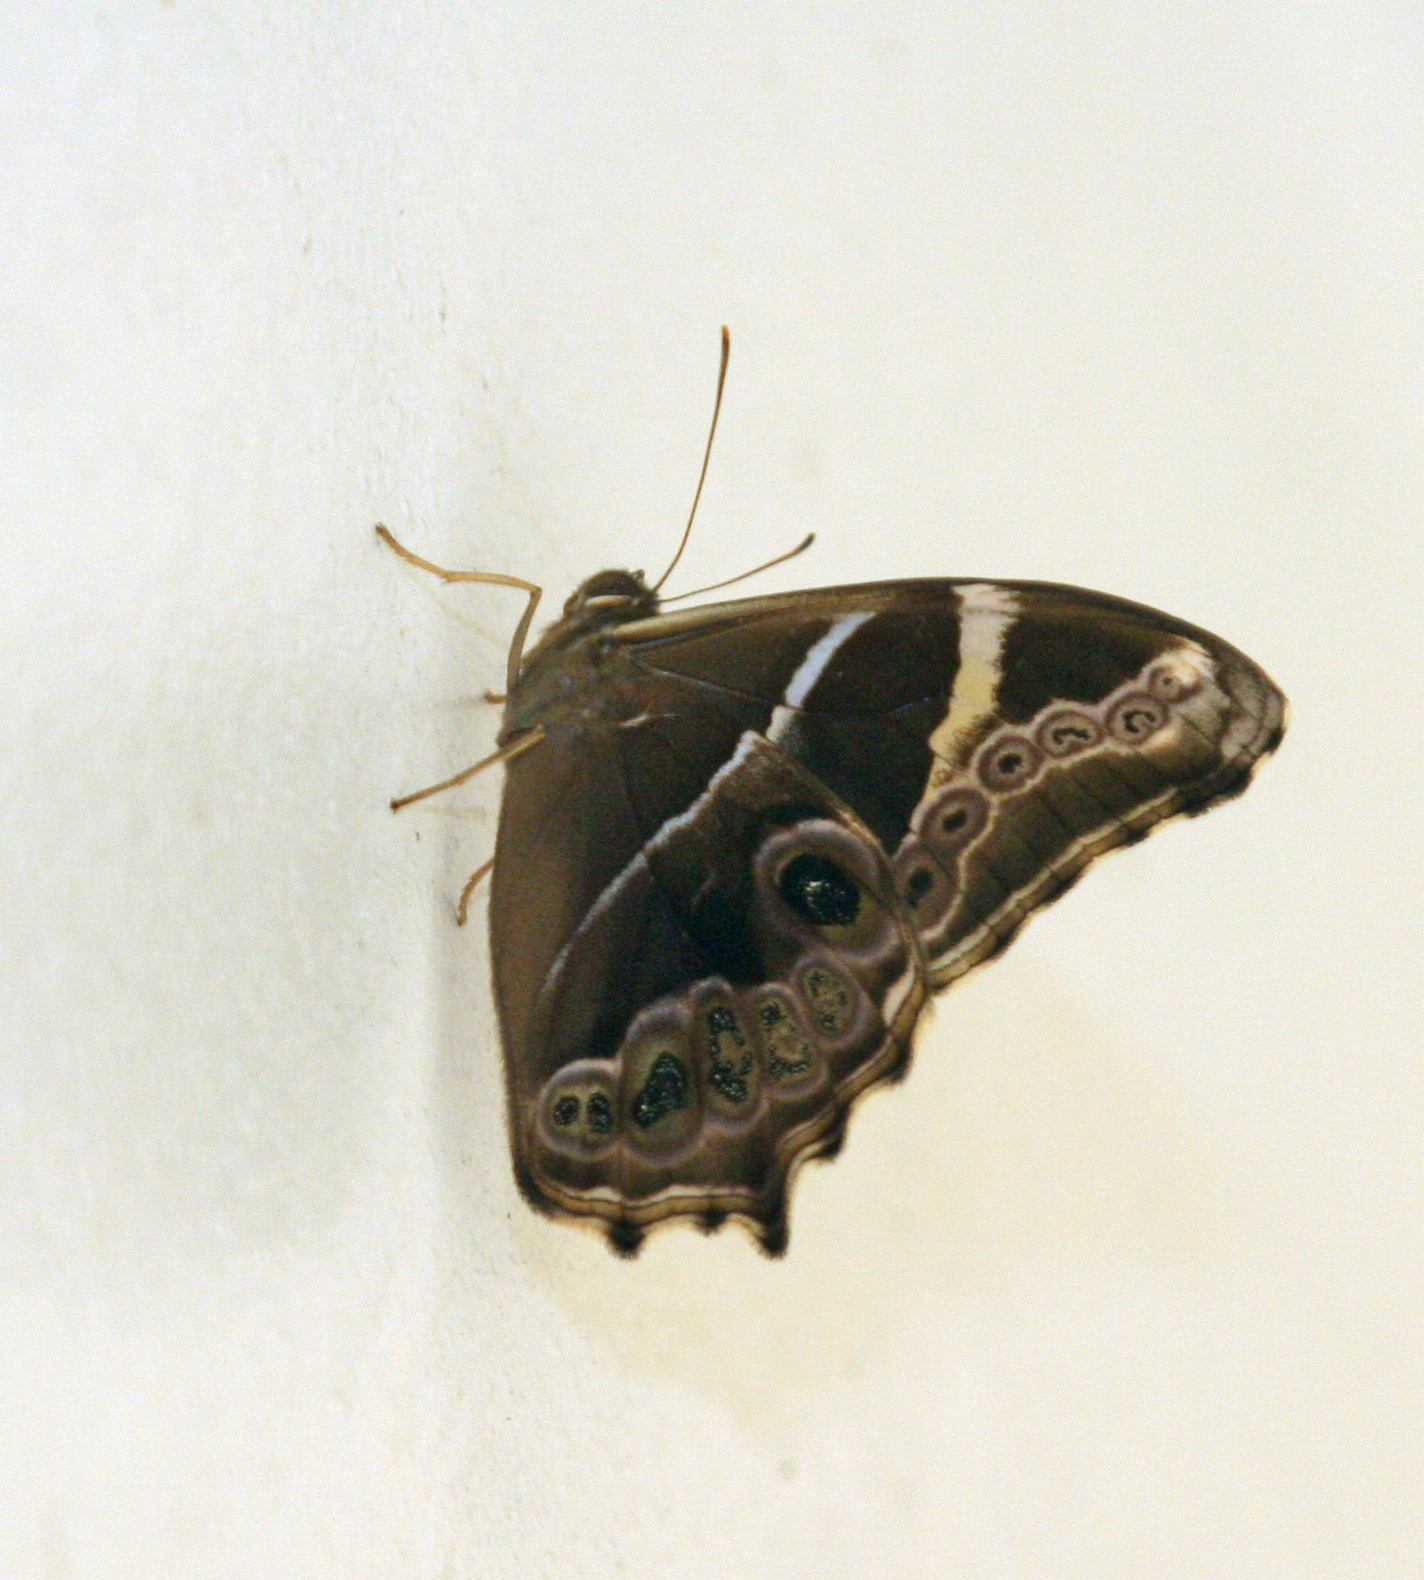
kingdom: Animalia
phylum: Arthropoda
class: Insecta
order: Lepidoptera
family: Nymphalidae
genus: Lethe
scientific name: Lethe europa
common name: Bamboo treebrown
